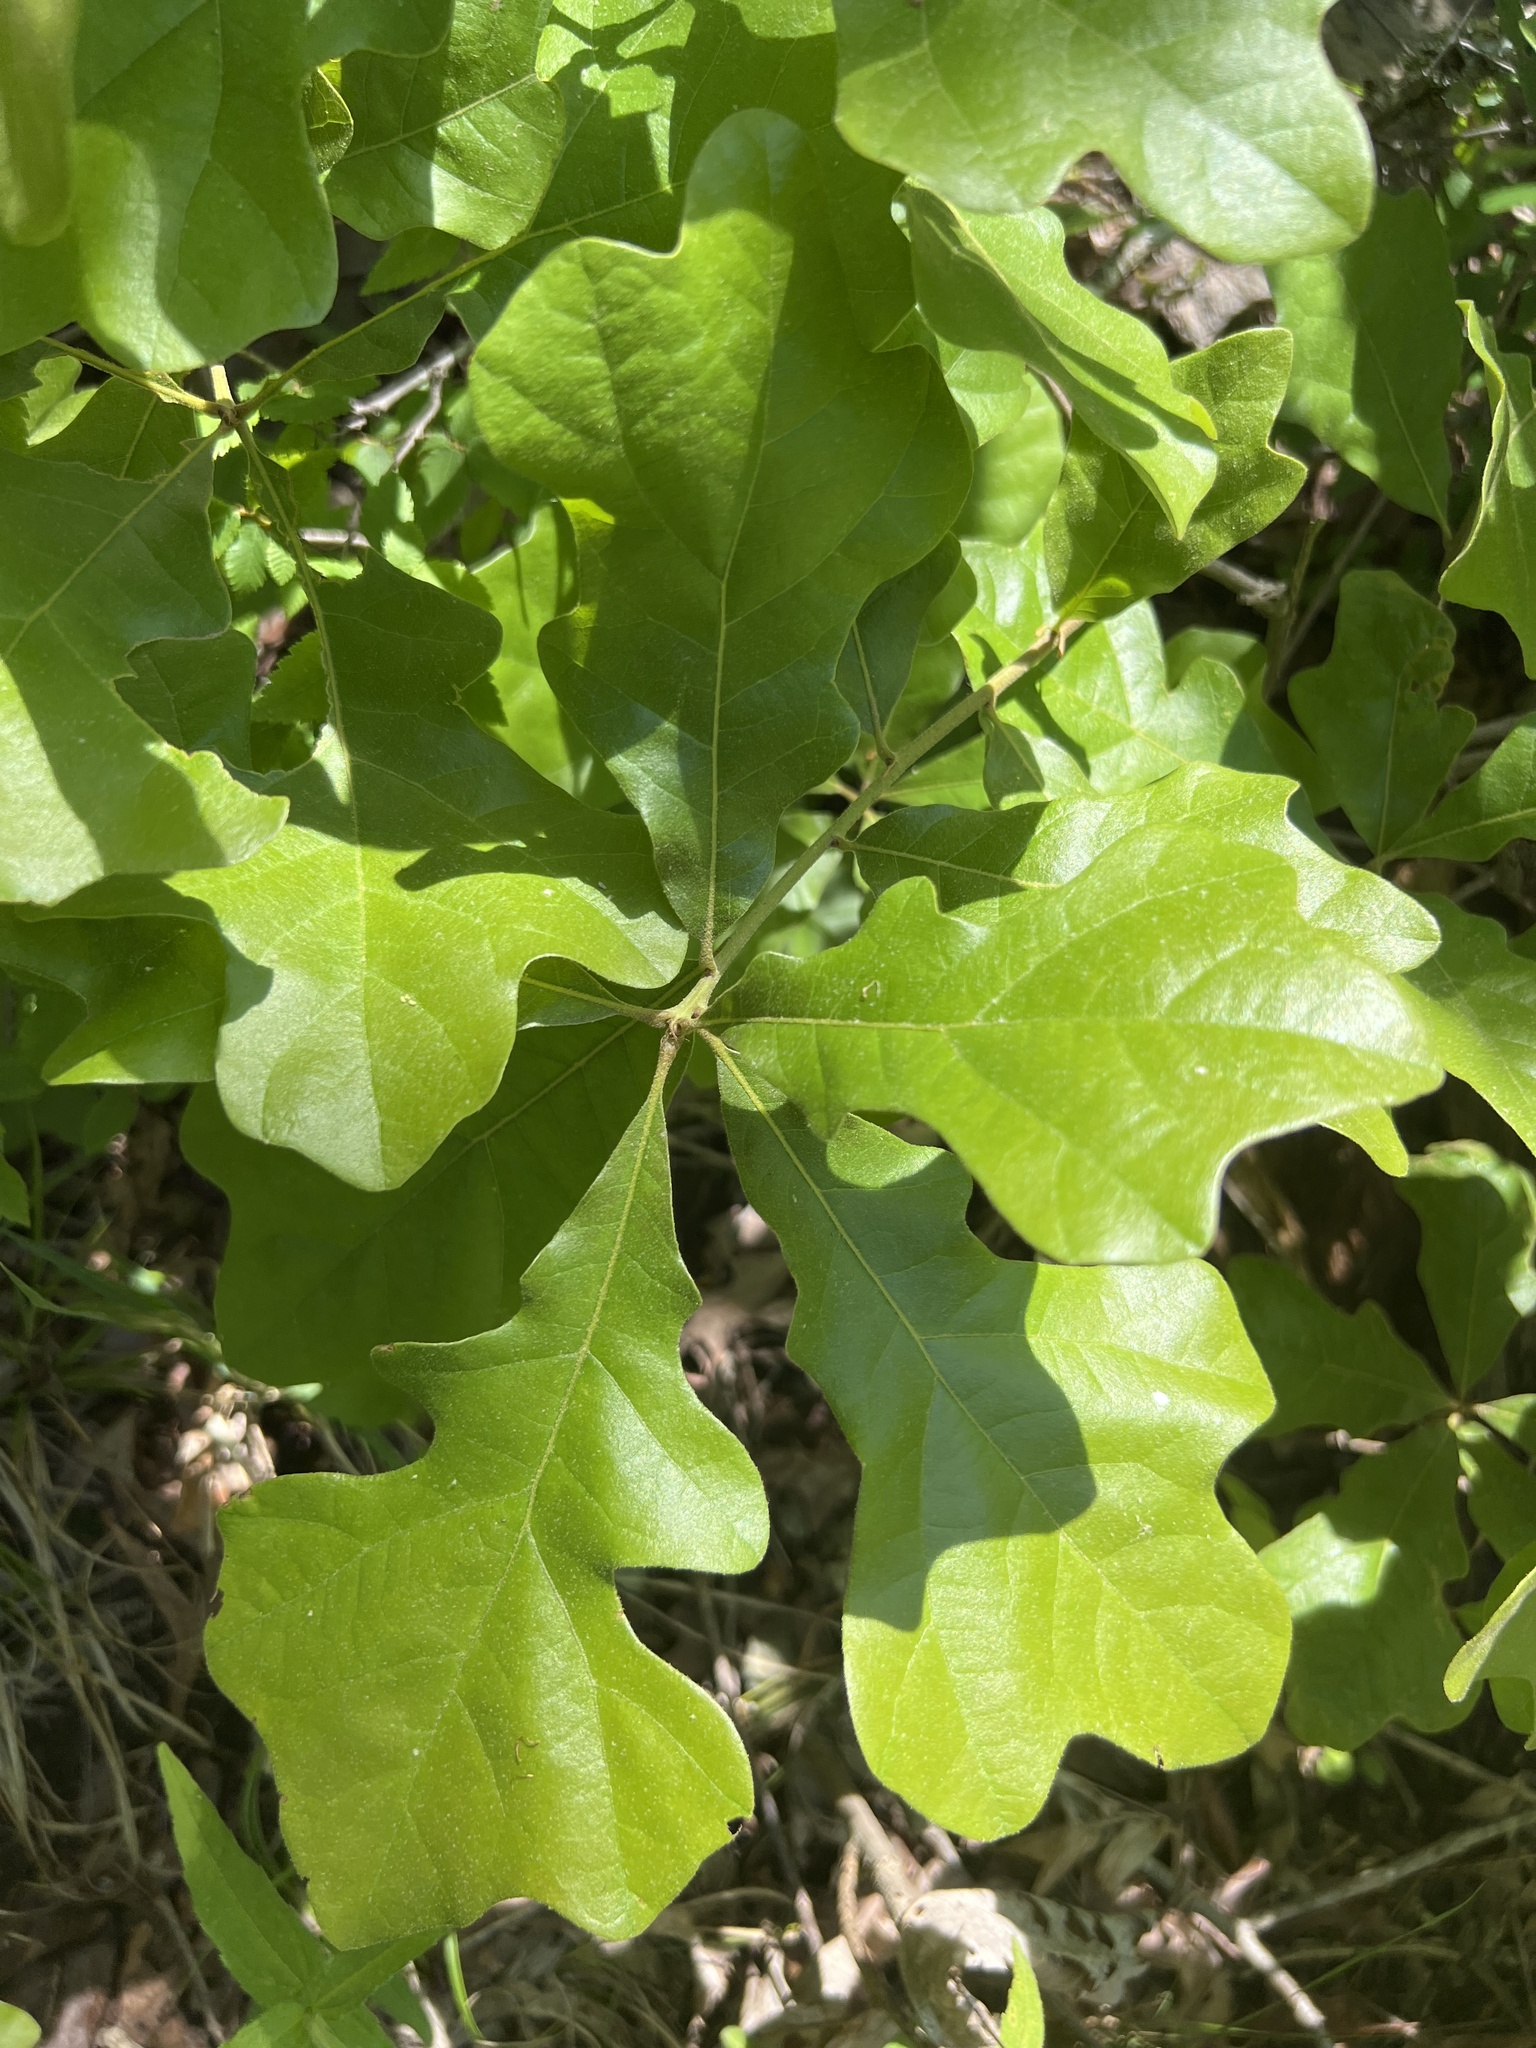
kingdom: Plantae
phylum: Tracheophyta
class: Magnoliopsida
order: Fagales
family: Fagaceae
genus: Quercus
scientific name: Quercus stellata
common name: Post oak
